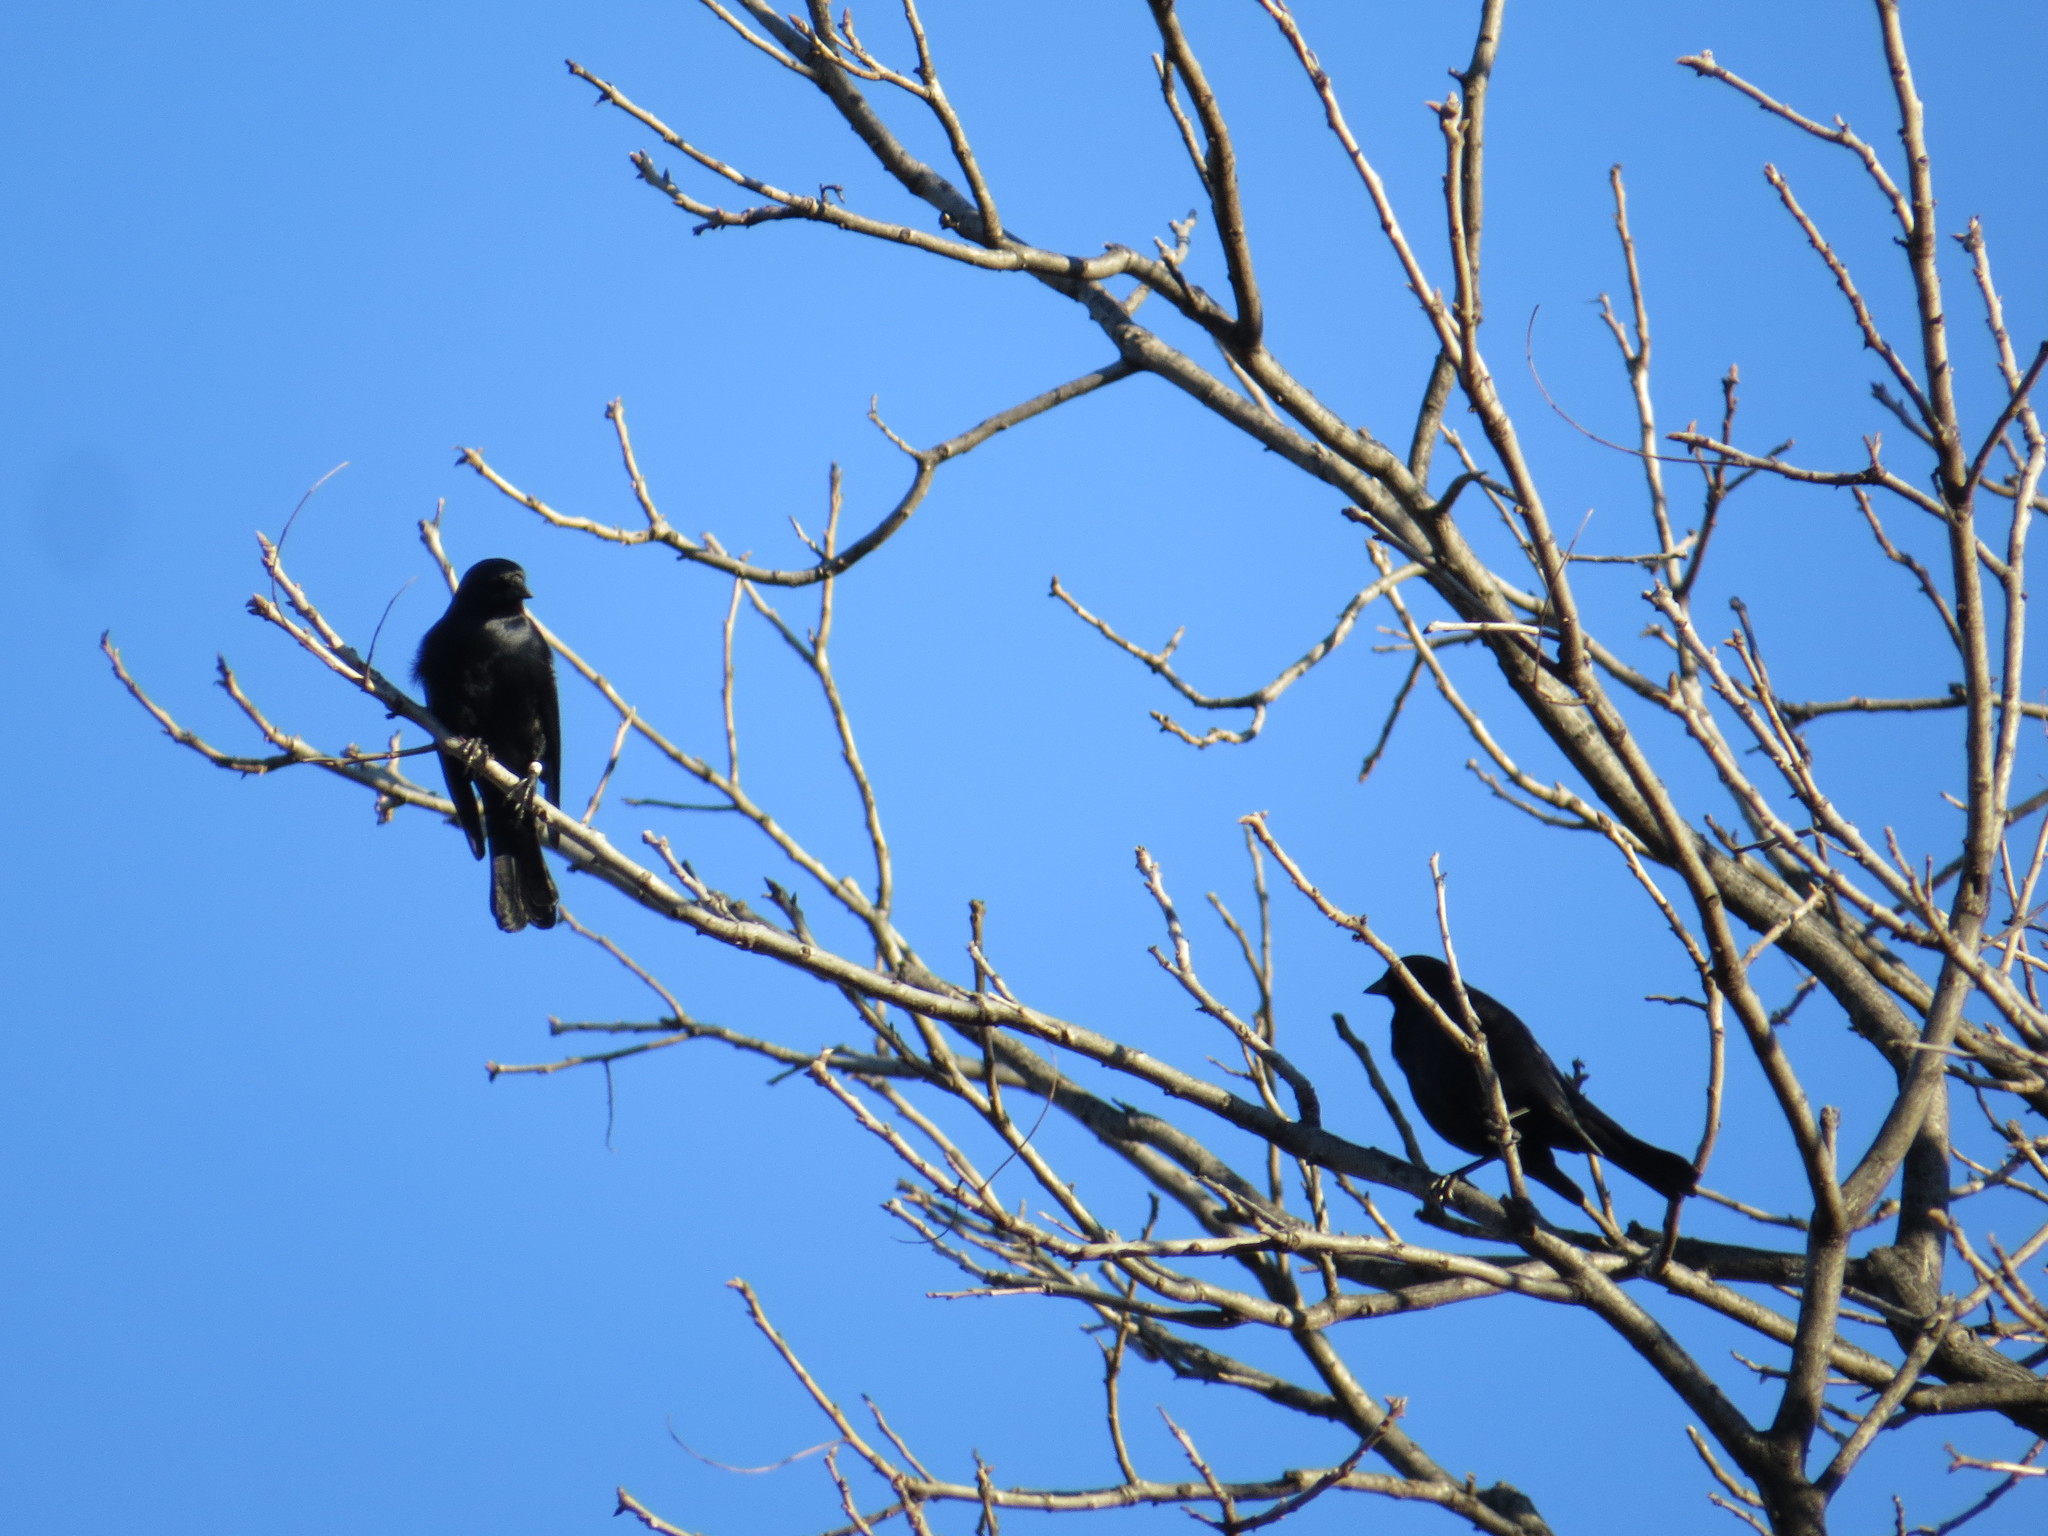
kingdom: Animalia
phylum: Chordata
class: Aves
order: Passeriformes
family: Icteridae
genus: Molothrus
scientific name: Molothrus rufoaxillaris
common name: Screaming cowbird
